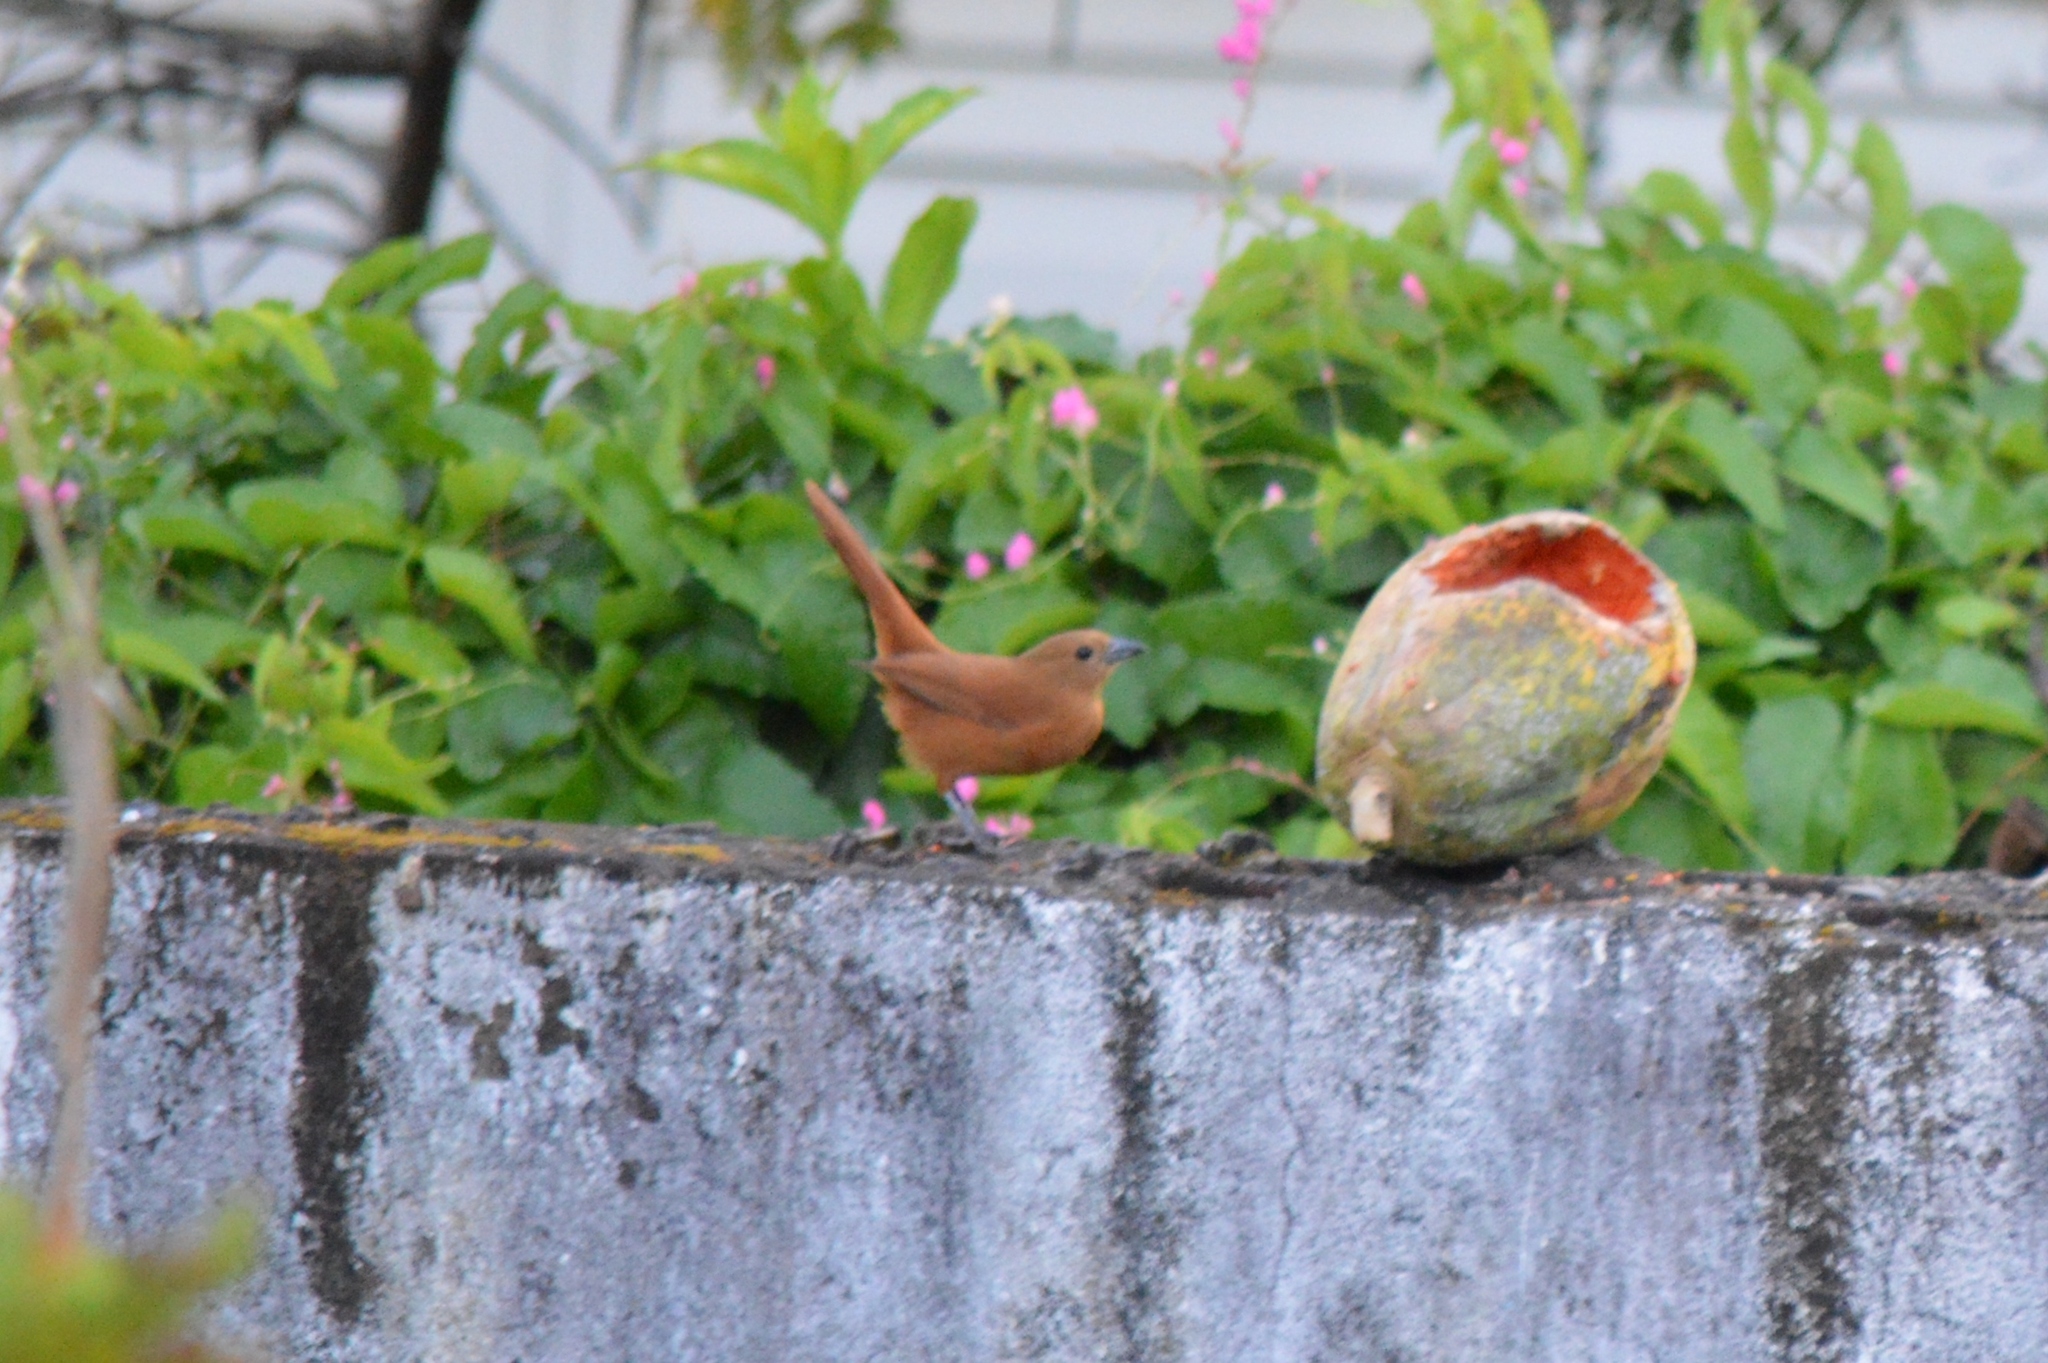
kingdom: Animalia
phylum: Chordata
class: Aves
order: Passeriformes
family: Thraupidae
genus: Tachyphonus
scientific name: Tachyphonus rufus
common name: White-lined tanager
